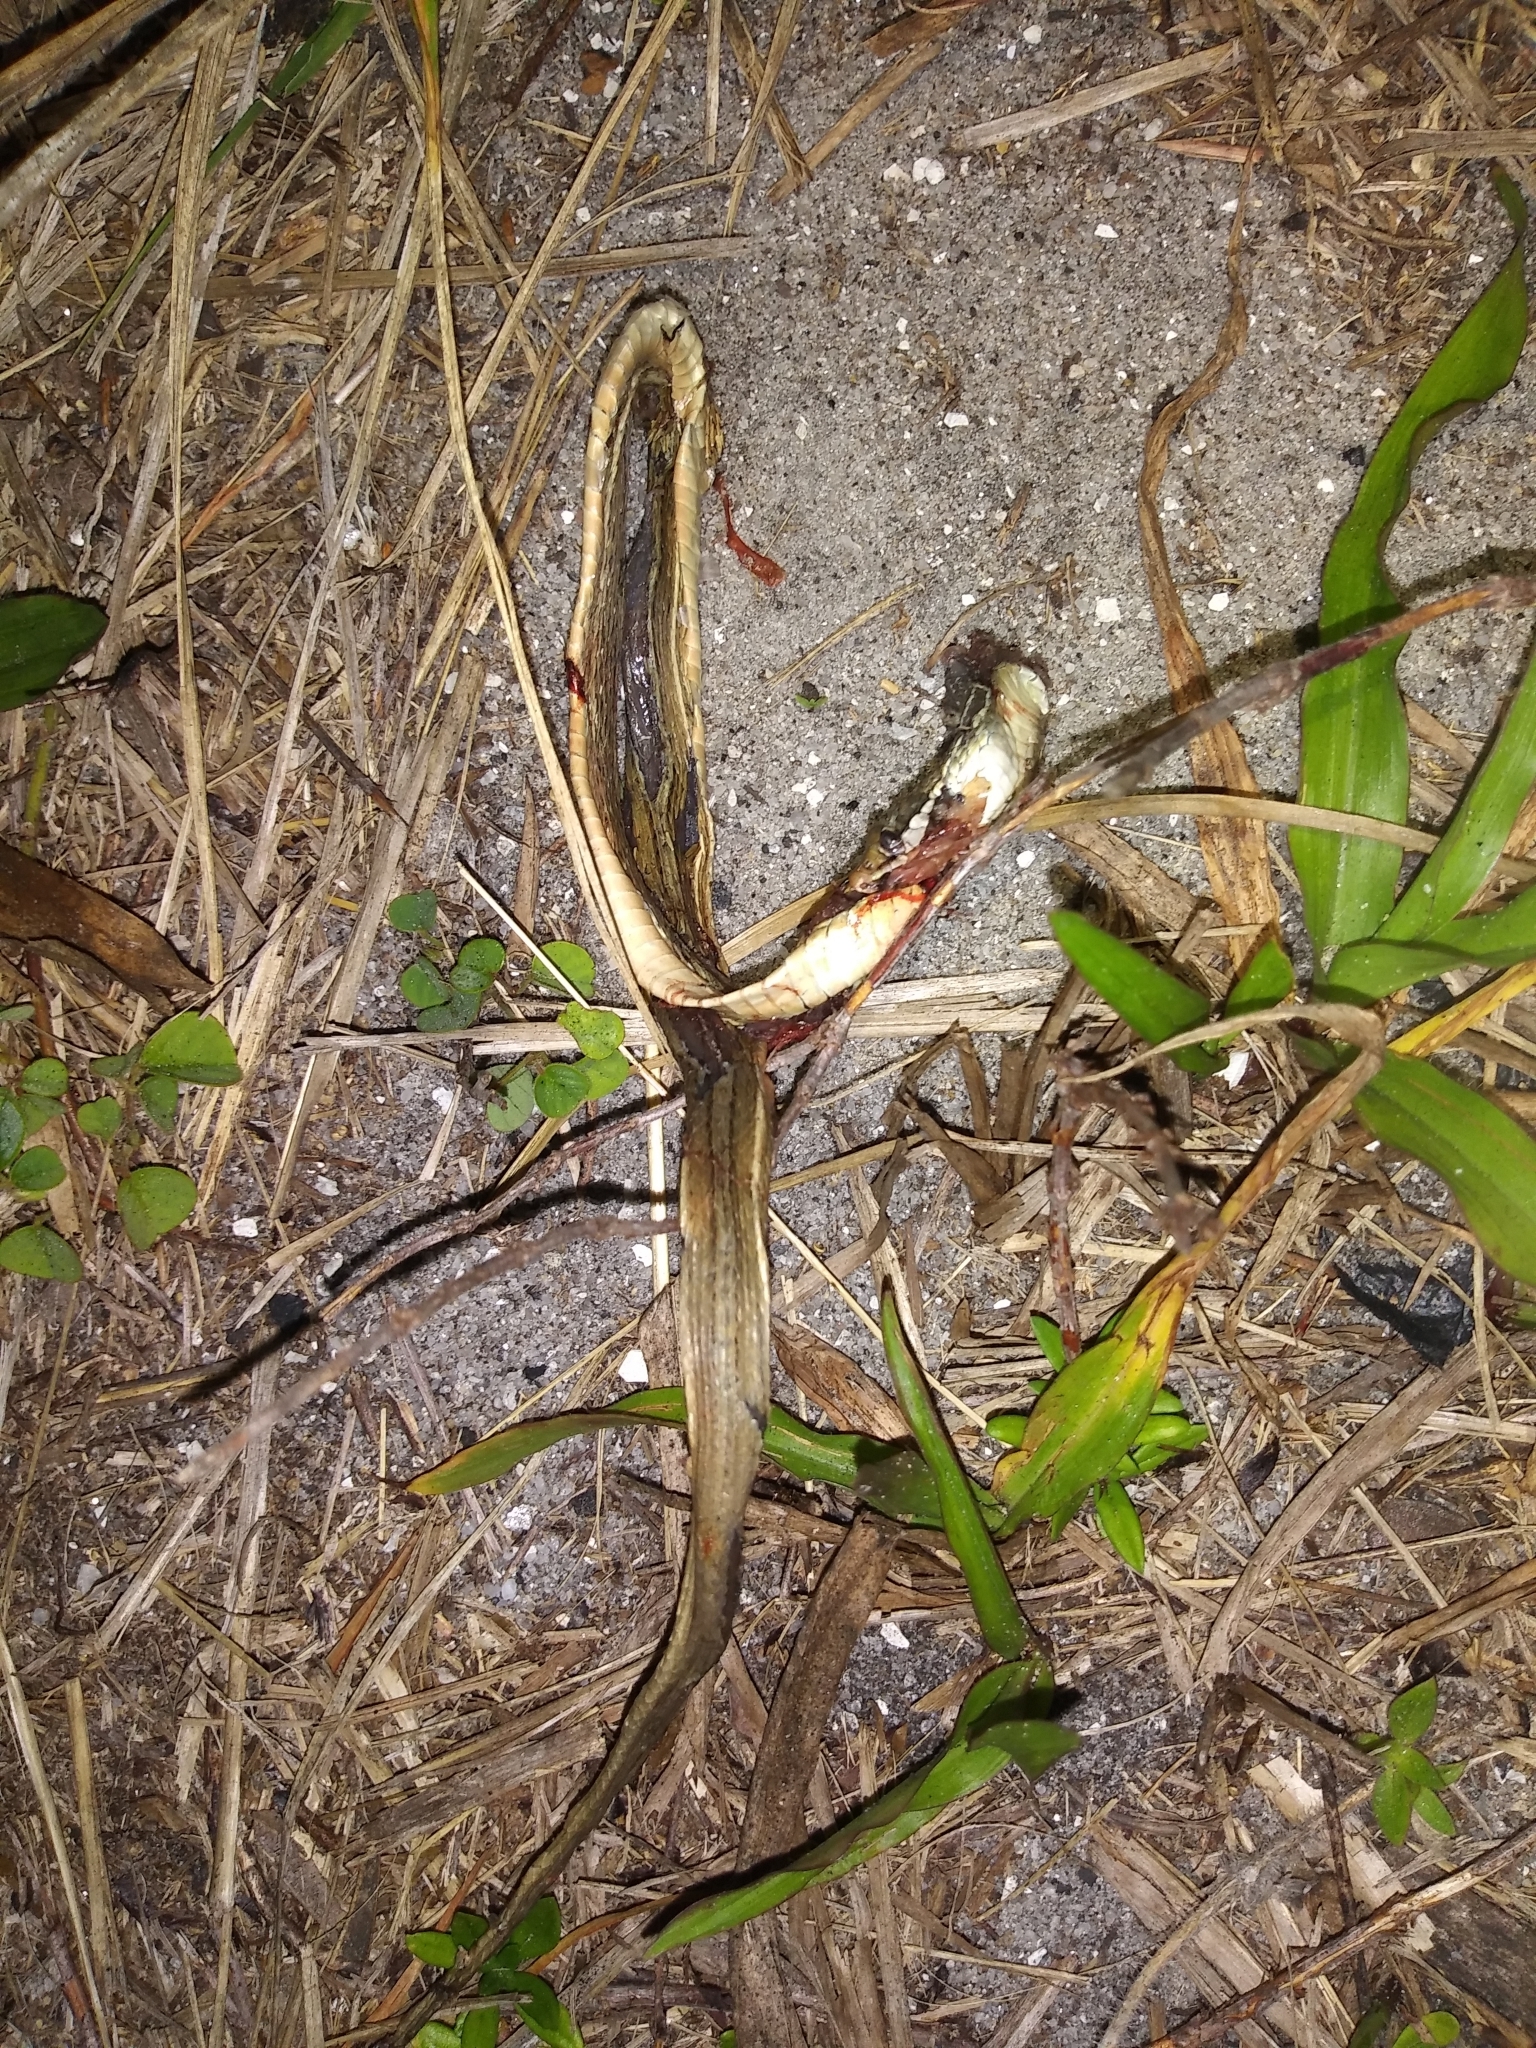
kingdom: Animalia
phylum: Chordata
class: Squamata
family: Colubridae
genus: Thamnophis
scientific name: Thamnophis saurita
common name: Eastern ribbonsnake
